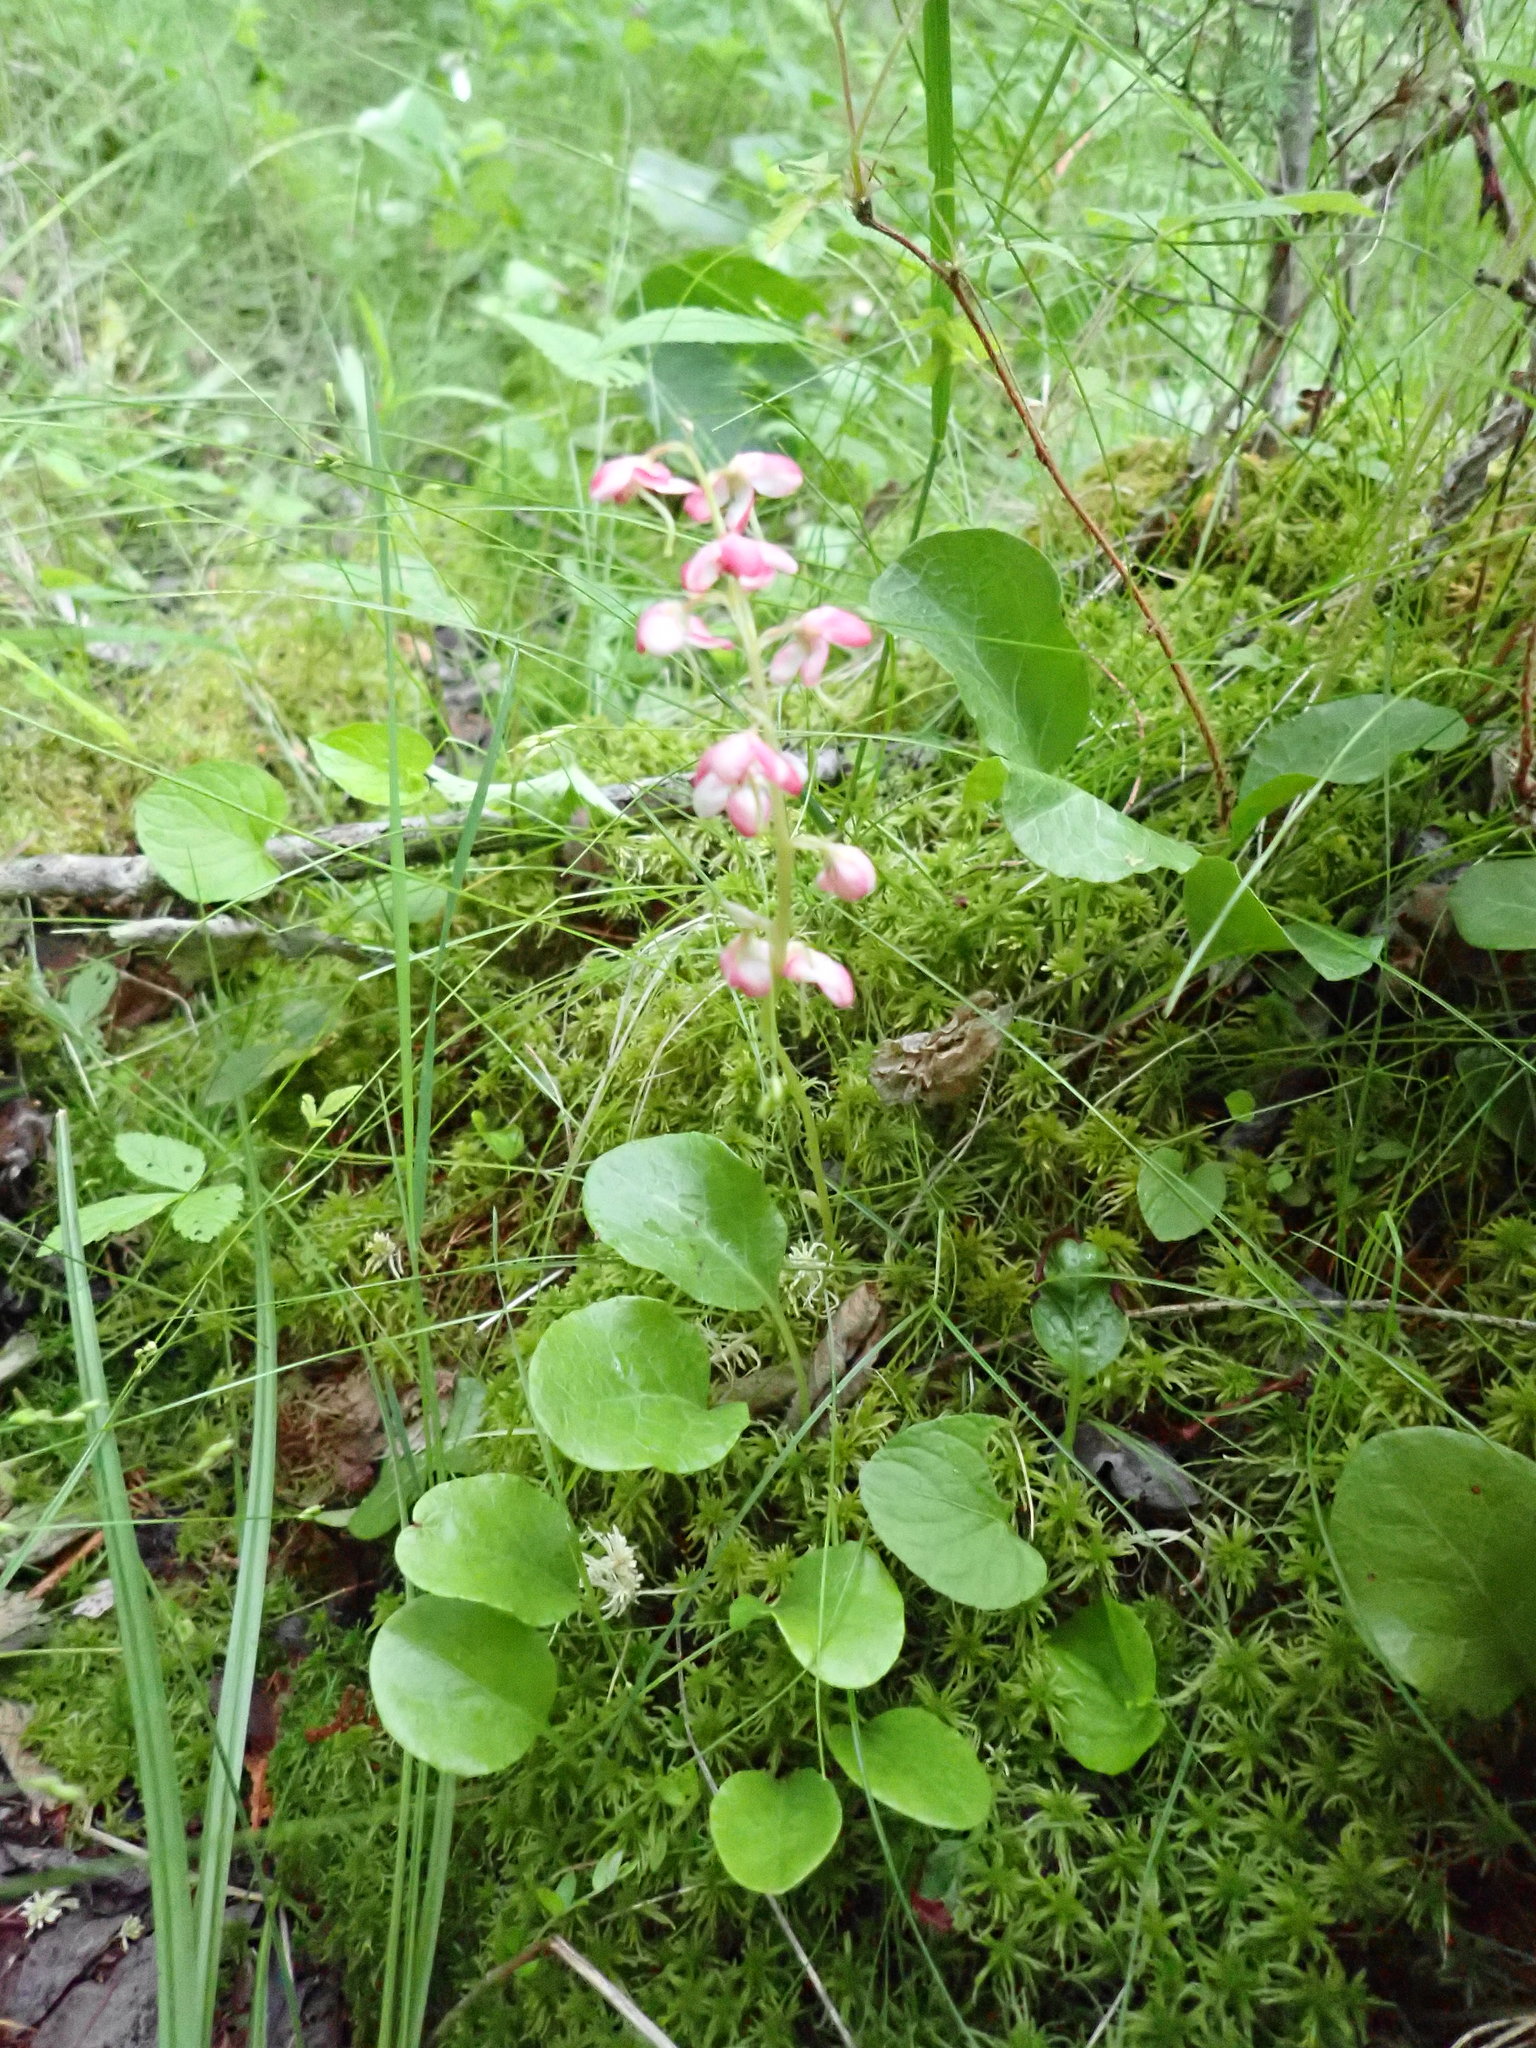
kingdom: Plantae
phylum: Tracheophyta
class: Magnoliopsida
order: Ericales
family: Ericaceae
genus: Pyrola
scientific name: Pyrola asarifolia
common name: Bog wintergreen
